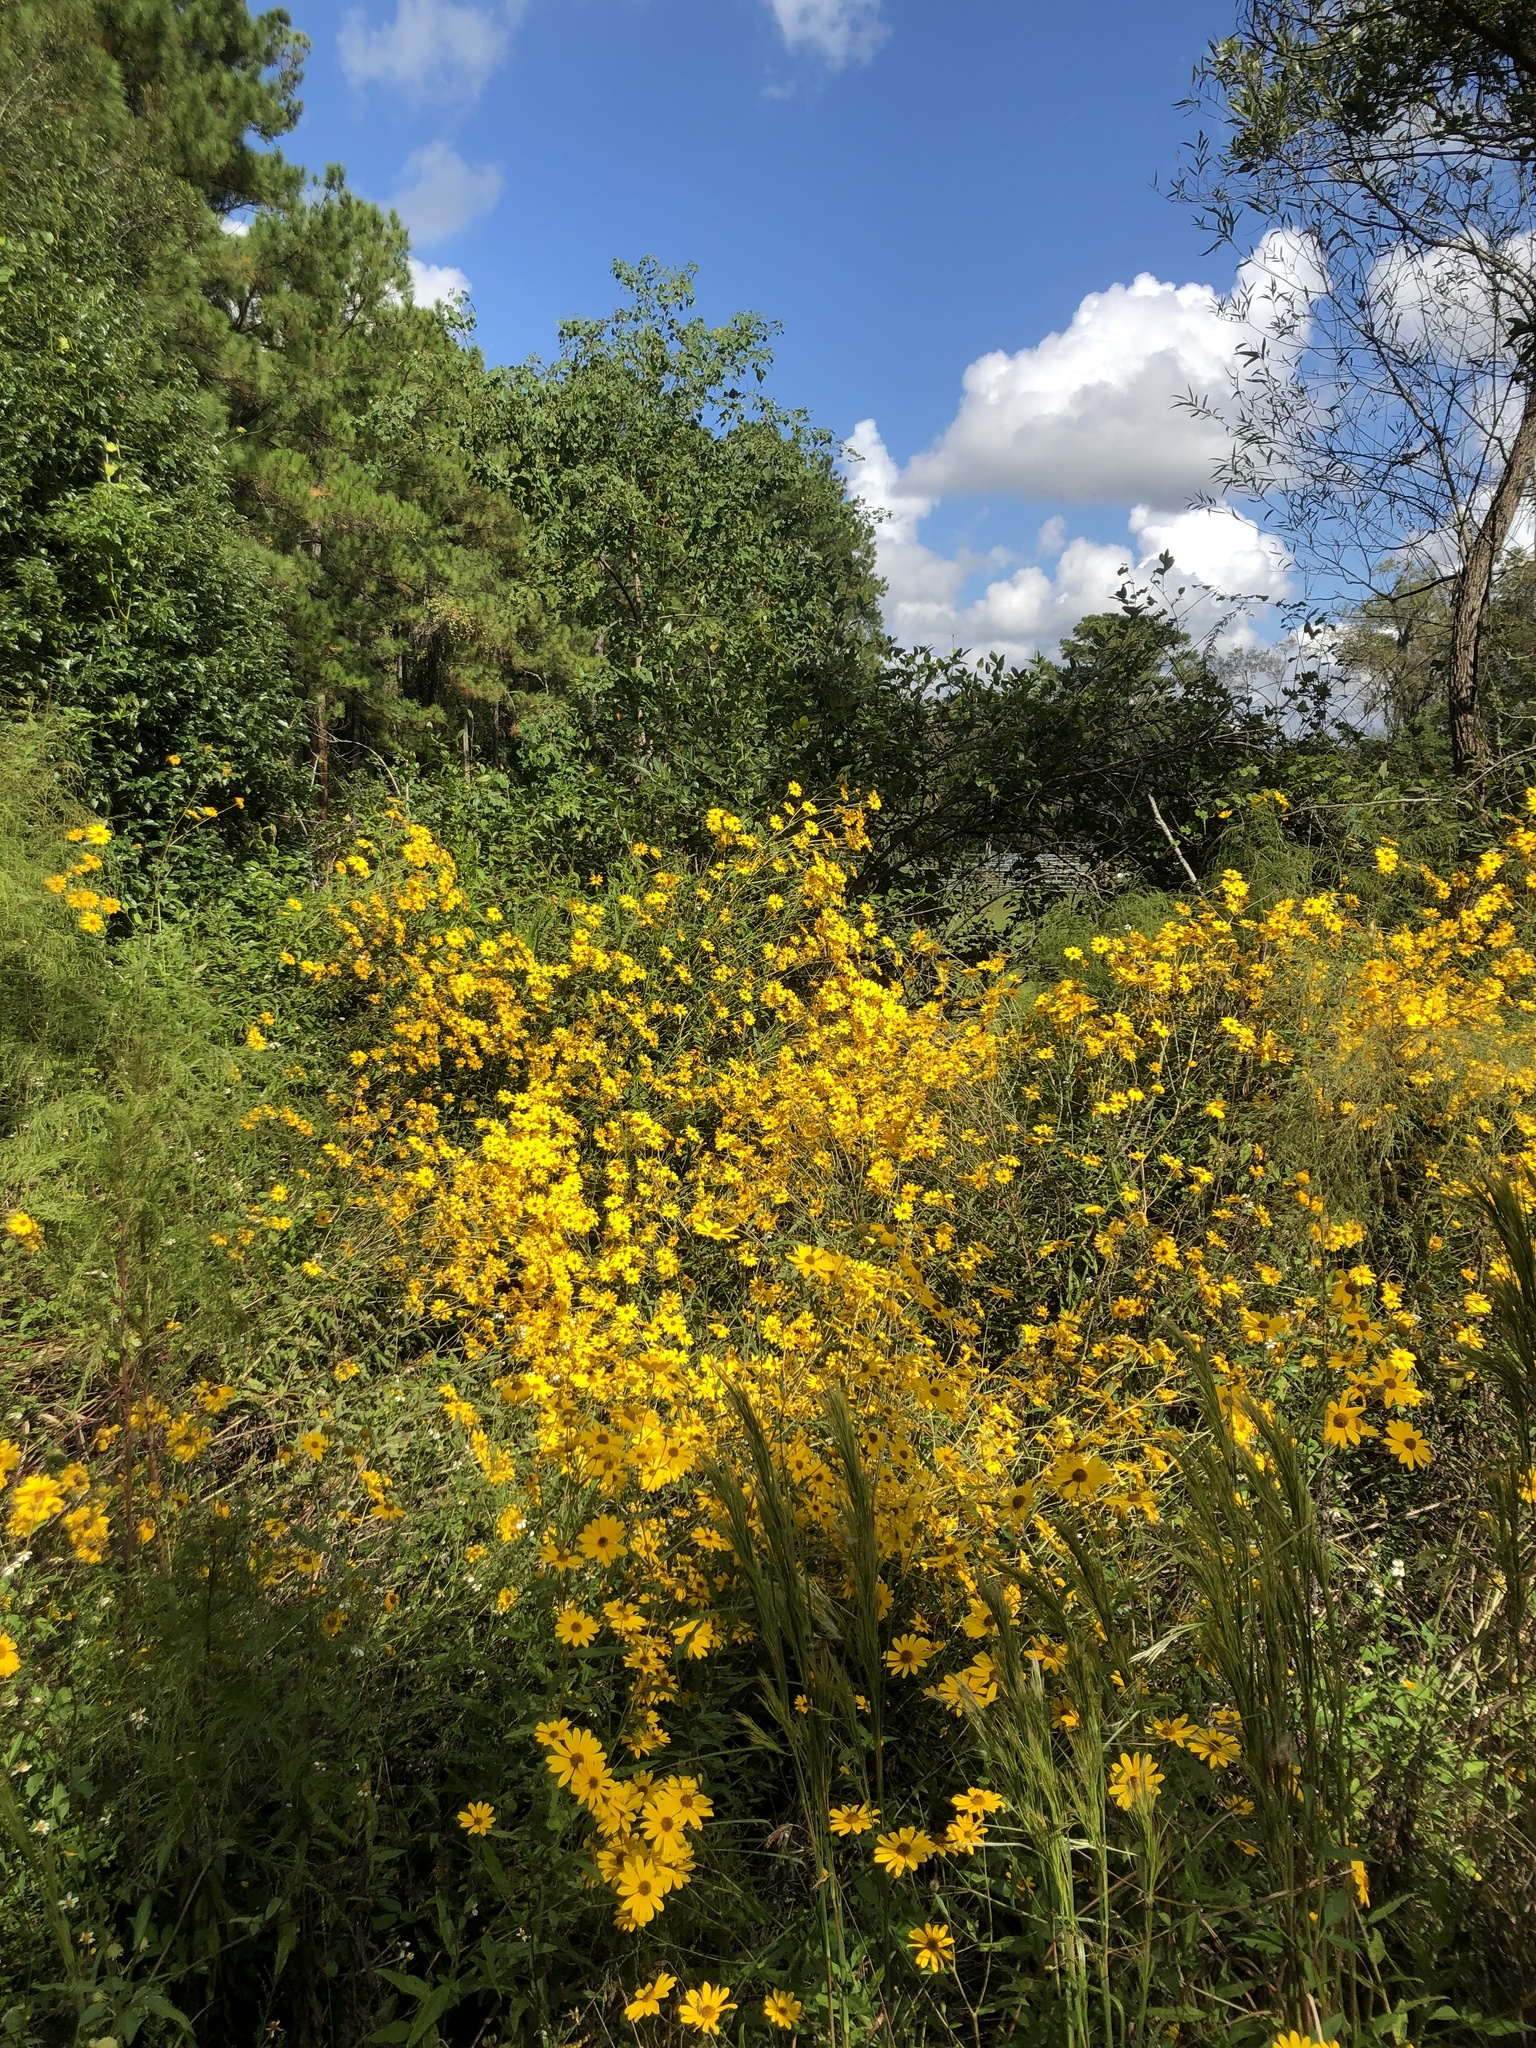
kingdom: Plantae
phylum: Tracheophyta
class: Magnoliopsida
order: Asterales
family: Asteraceae
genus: Bidens
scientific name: Bidens laevis
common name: Larger bur-marigold
